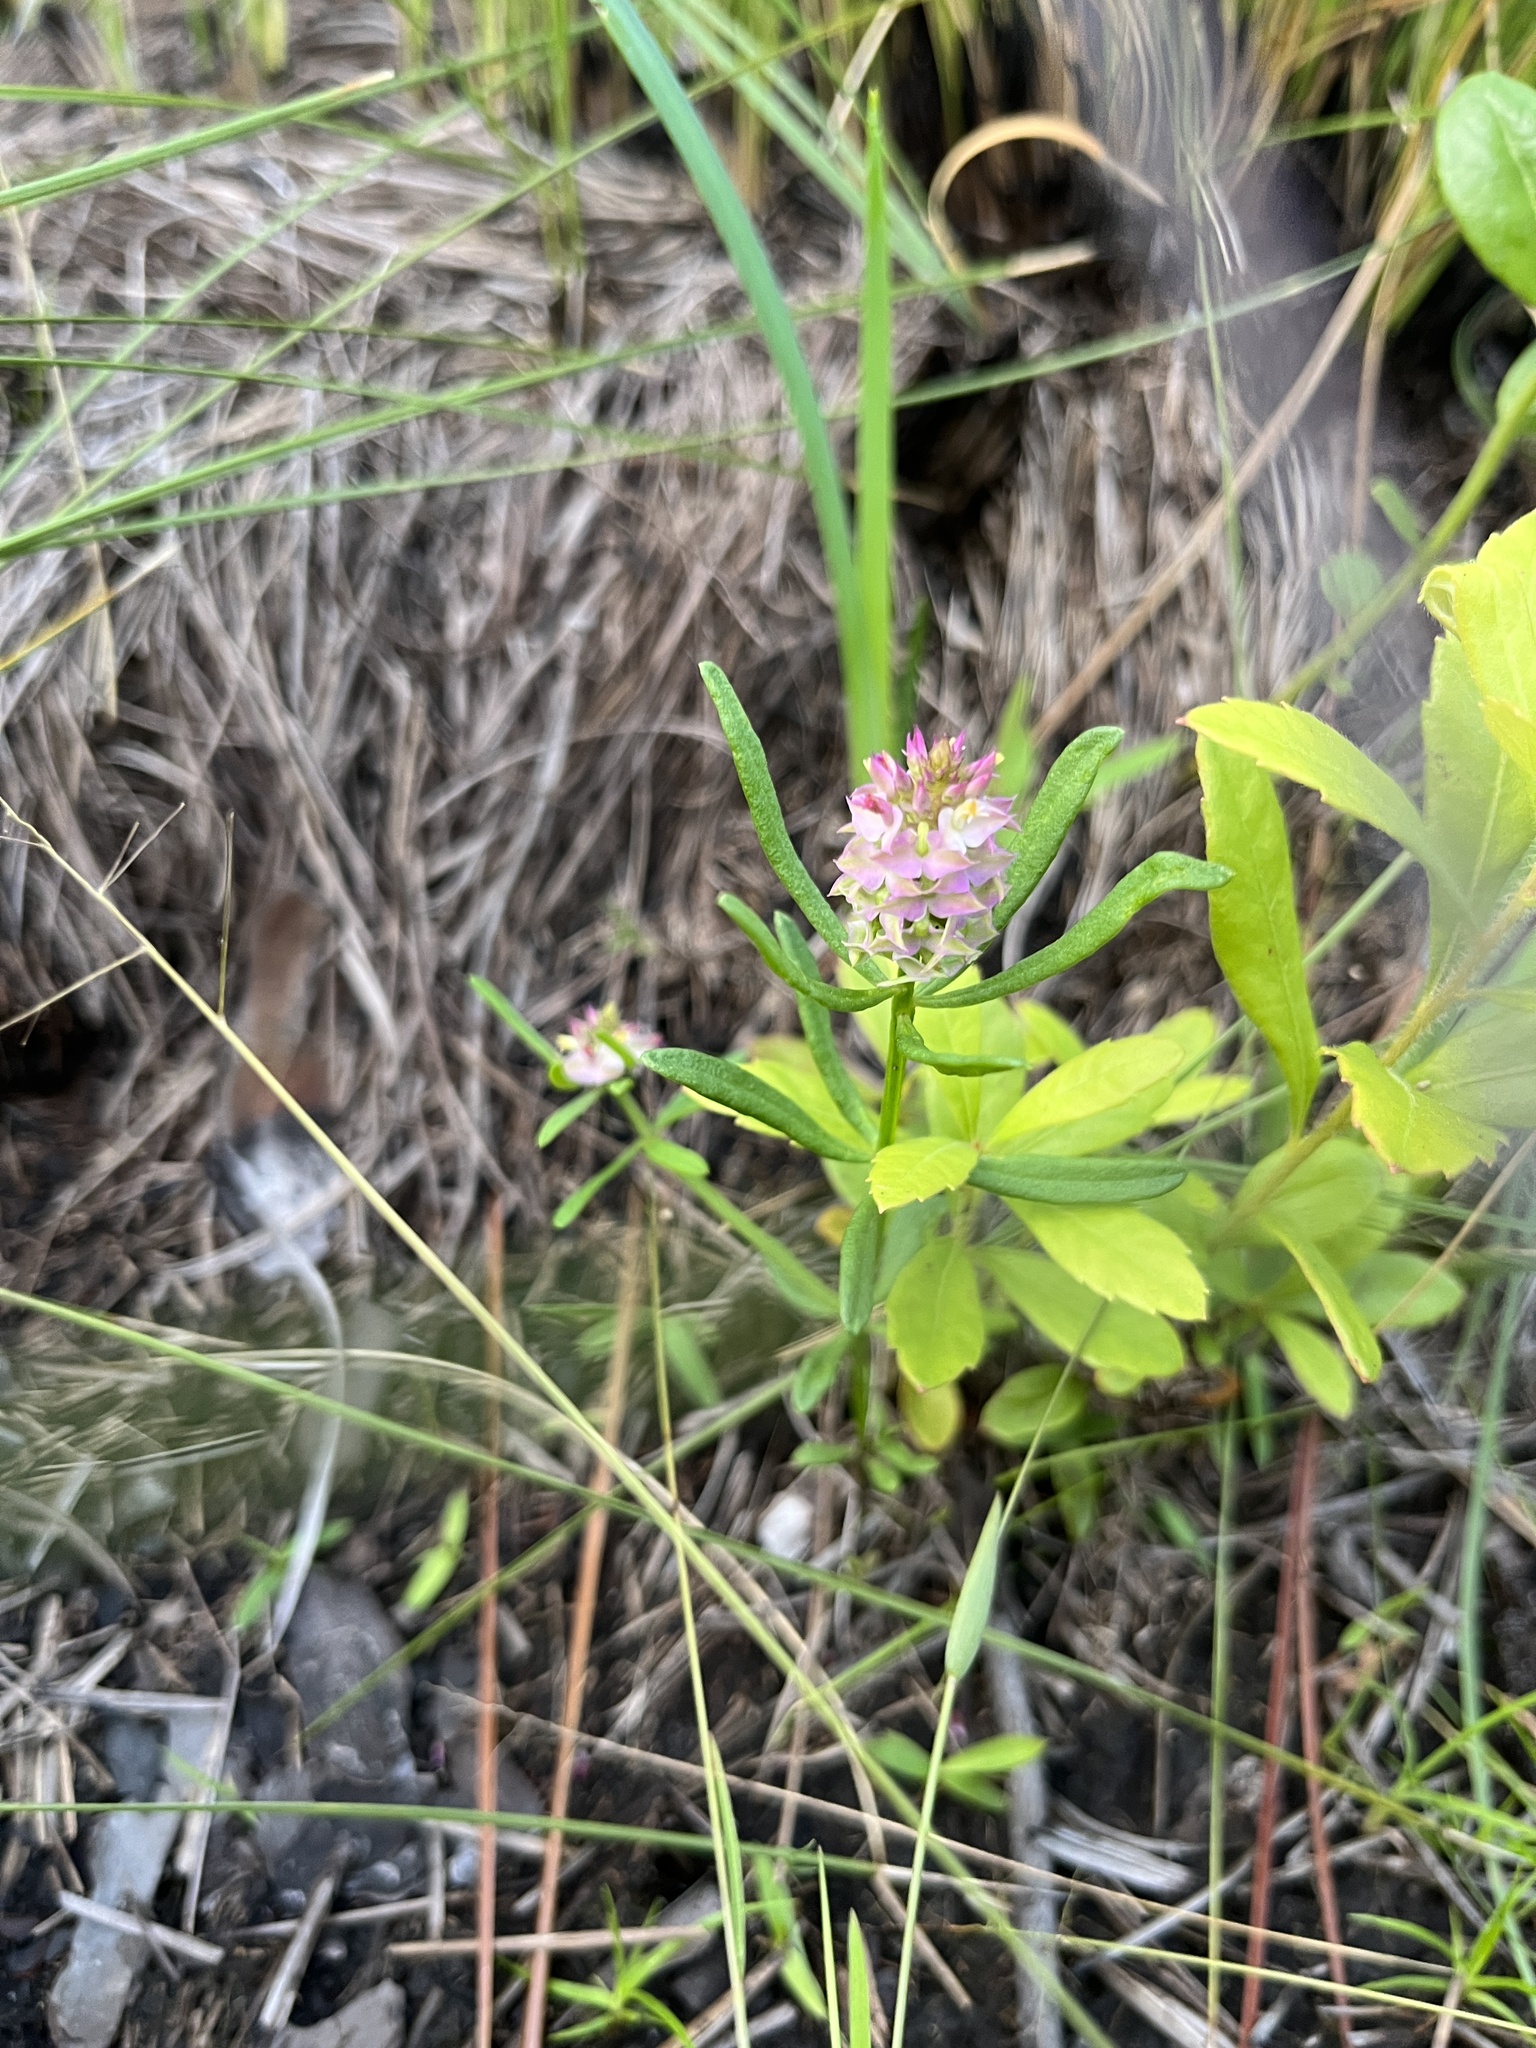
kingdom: Plantae
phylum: Tracheophyta
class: Magnoliopsida
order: Fabales
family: Polygalaceae
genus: Polygala
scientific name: Polygala cruciata
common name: Drumheads
